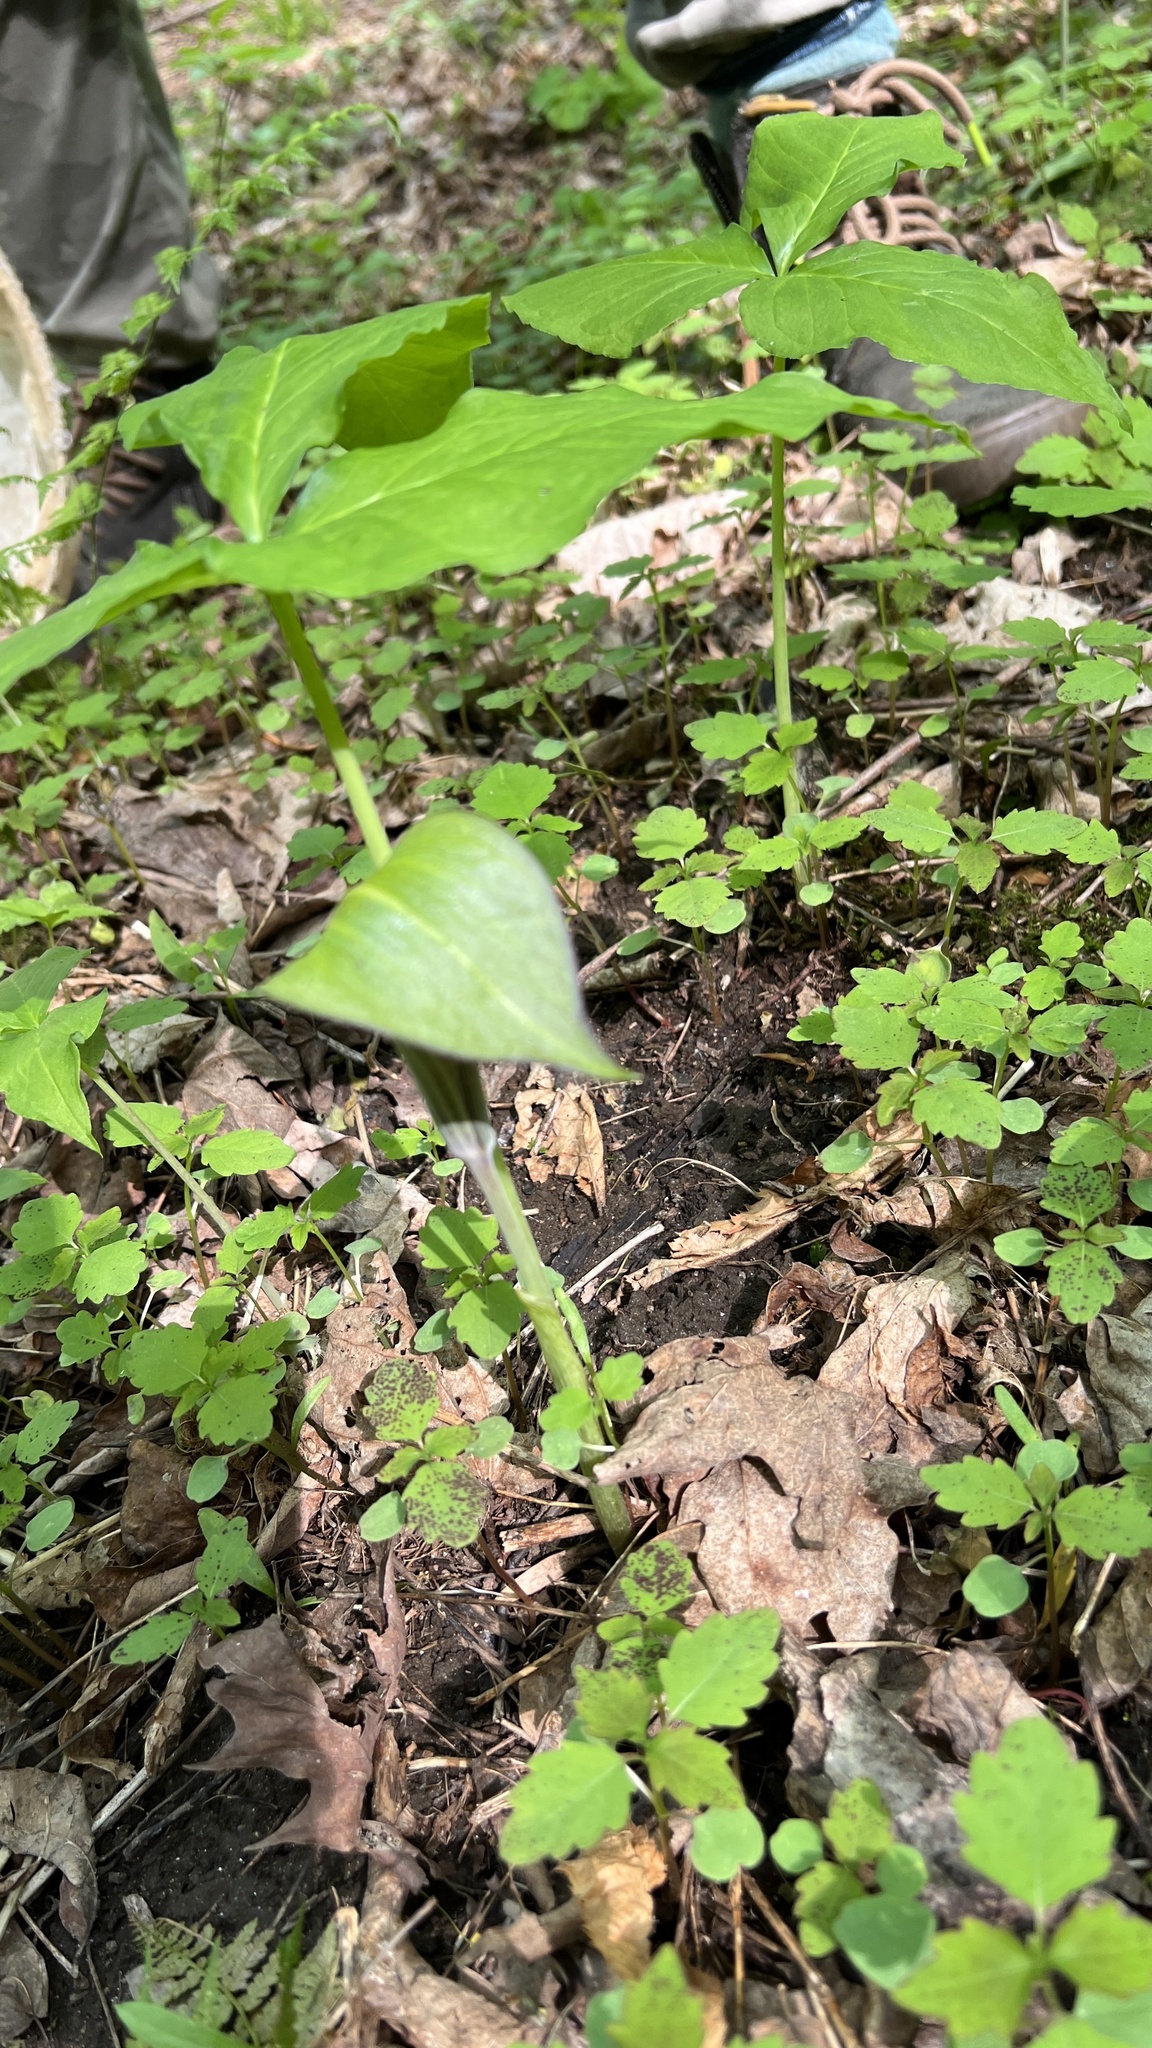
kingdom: Plantae
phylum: Tracheophyta
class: Liliopsida
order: Alismatales
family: Araceae
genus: Arisaema
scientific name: Arisaema triphyllum
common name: Jack-in-the-pulpit
